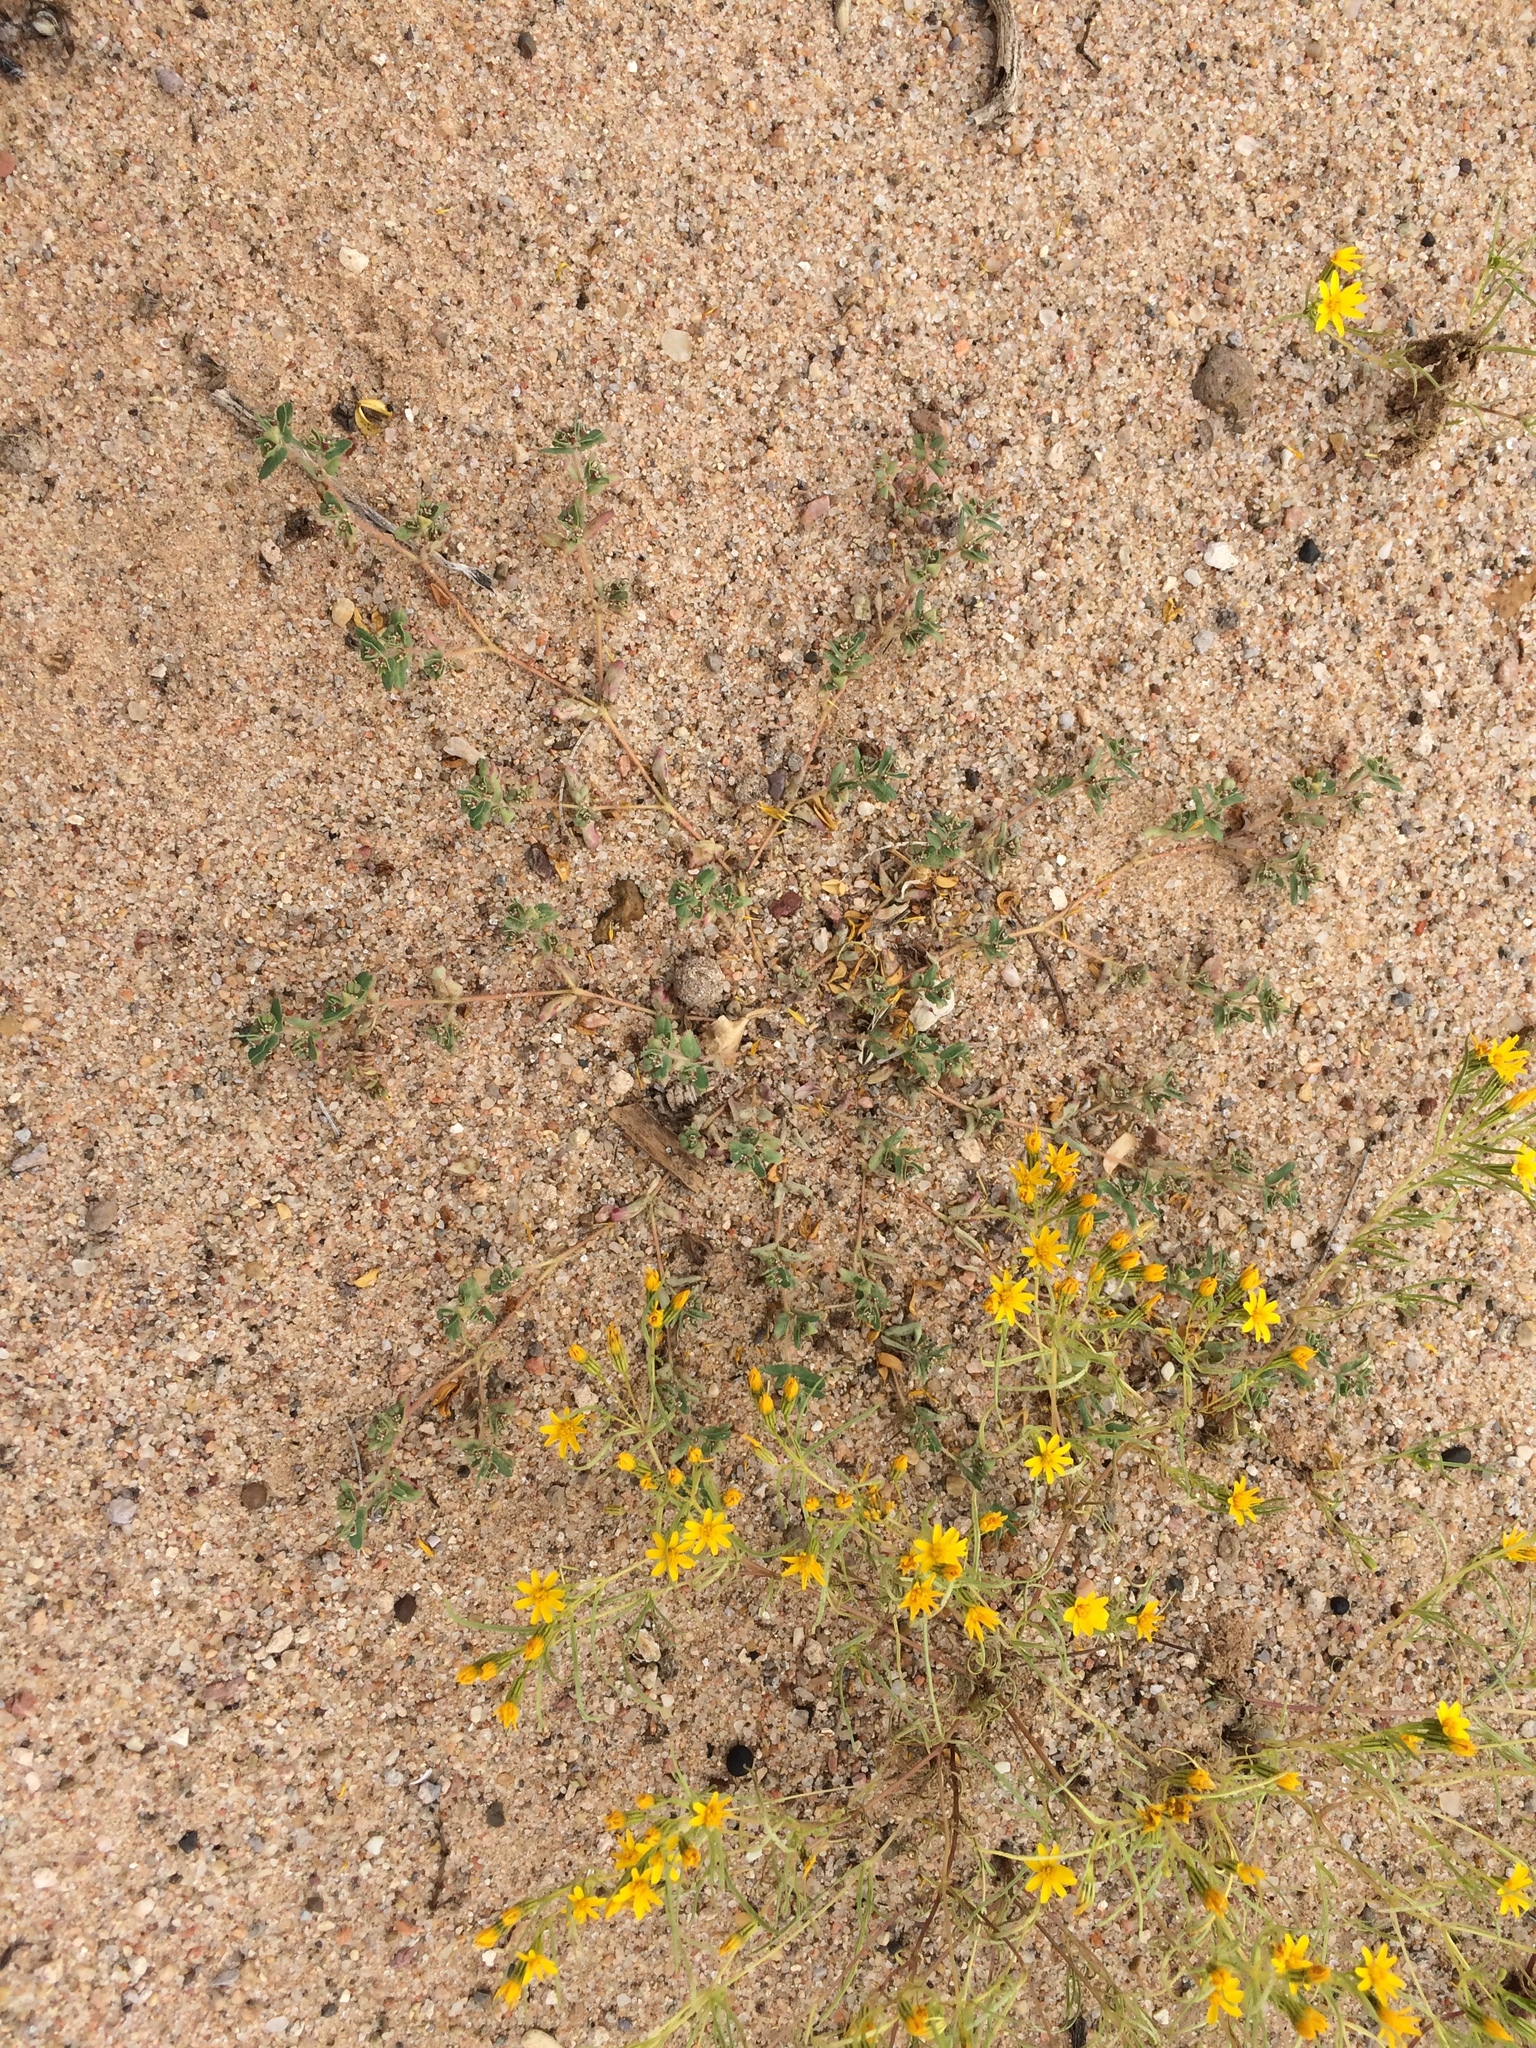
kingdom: Plantae
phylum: Tracheophyta
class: Magnoliopsida
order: Malpighiales
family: Euphorbiaceae
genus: Euphorbia
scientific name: Euphorbia serrula
